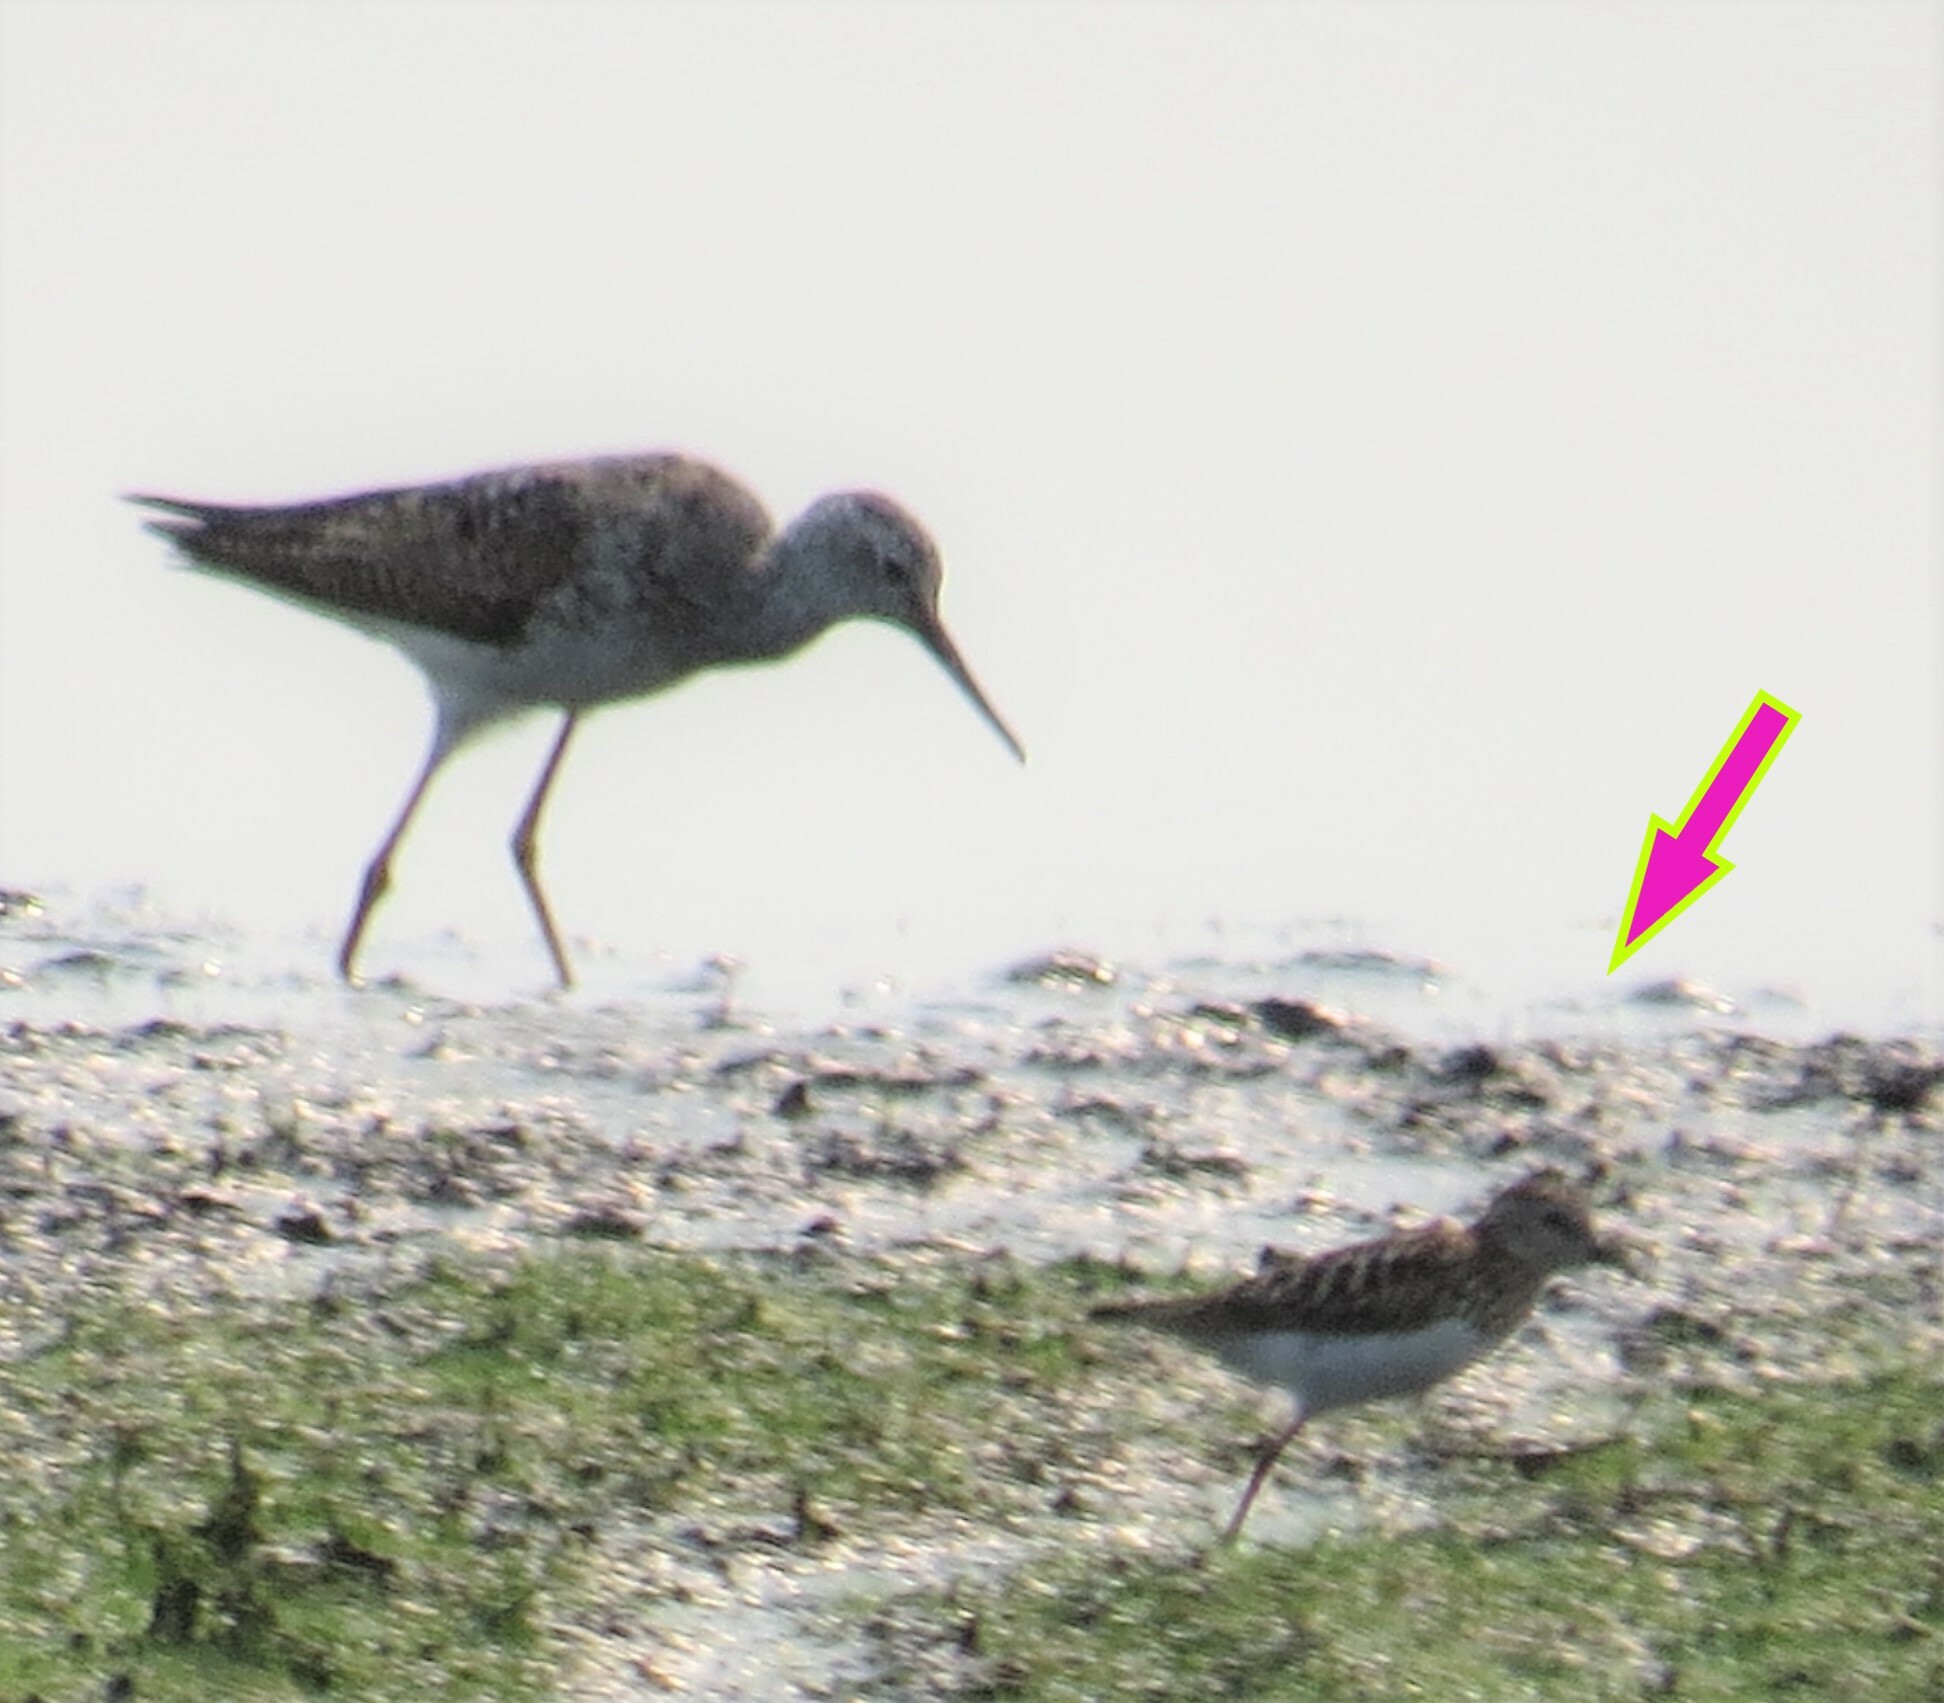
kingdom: Animalia
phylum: Chordata
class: Aves
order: Charadriiformes
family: Scolopacidae
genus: Calidris
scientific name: Calidris minutilla
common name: Least sandpiper
